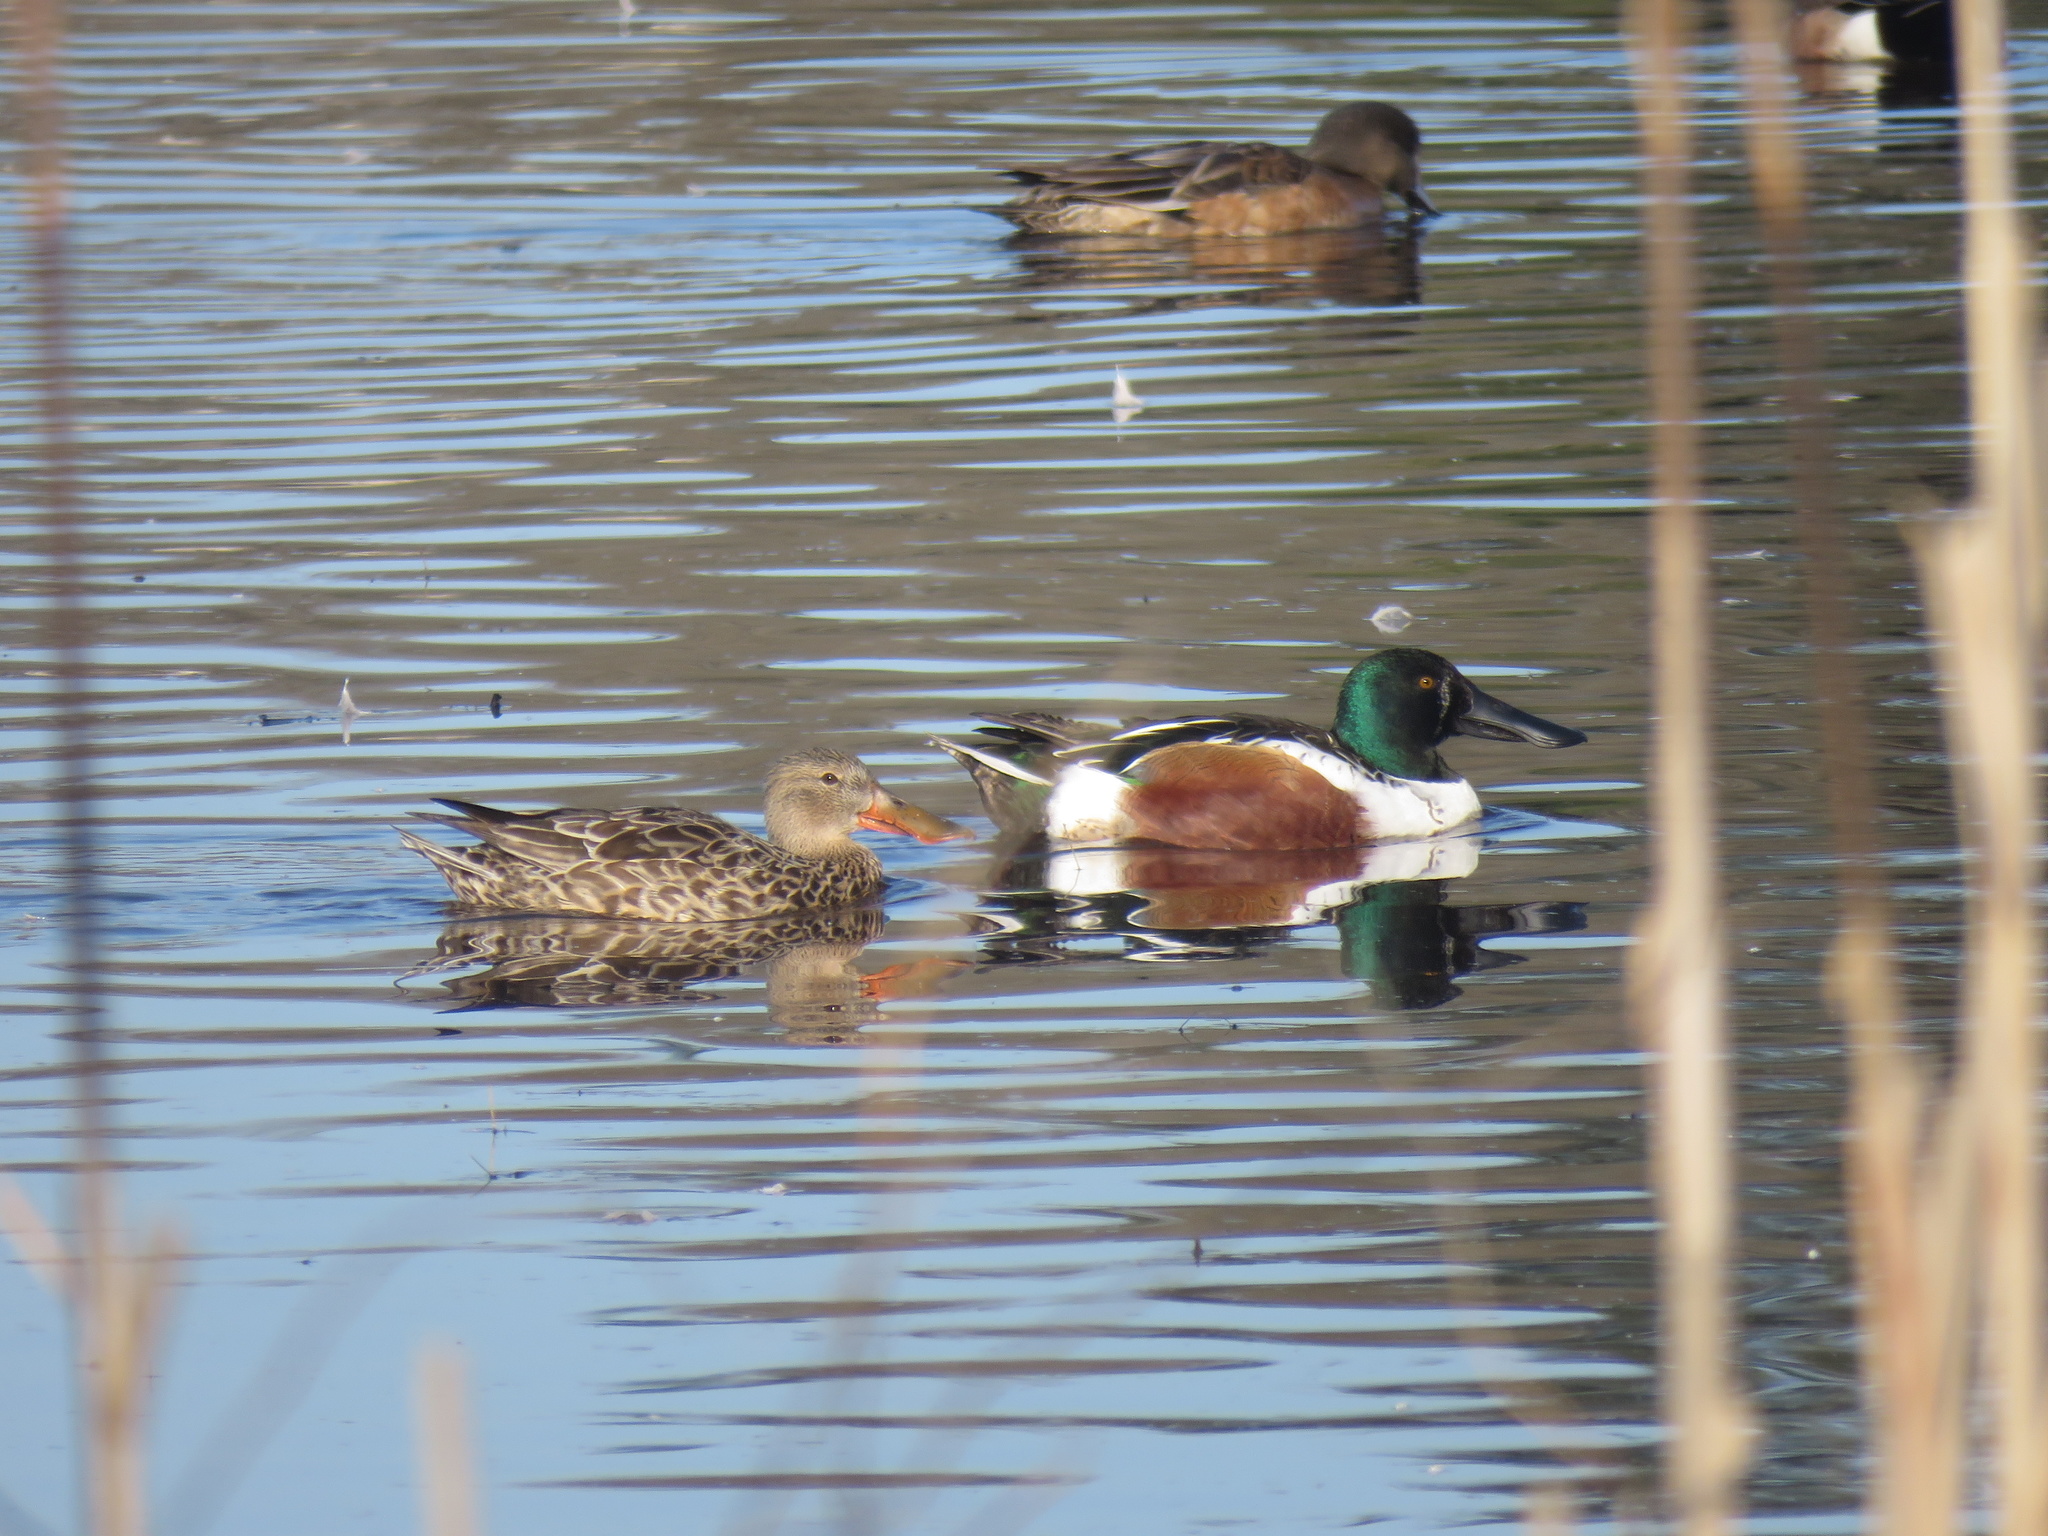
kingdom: Animalia
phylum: Chordata
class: Aves
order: Anseriformes
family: Anatidae
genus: Spatula
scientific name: Spatula clypeata
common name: Northern shoveler
